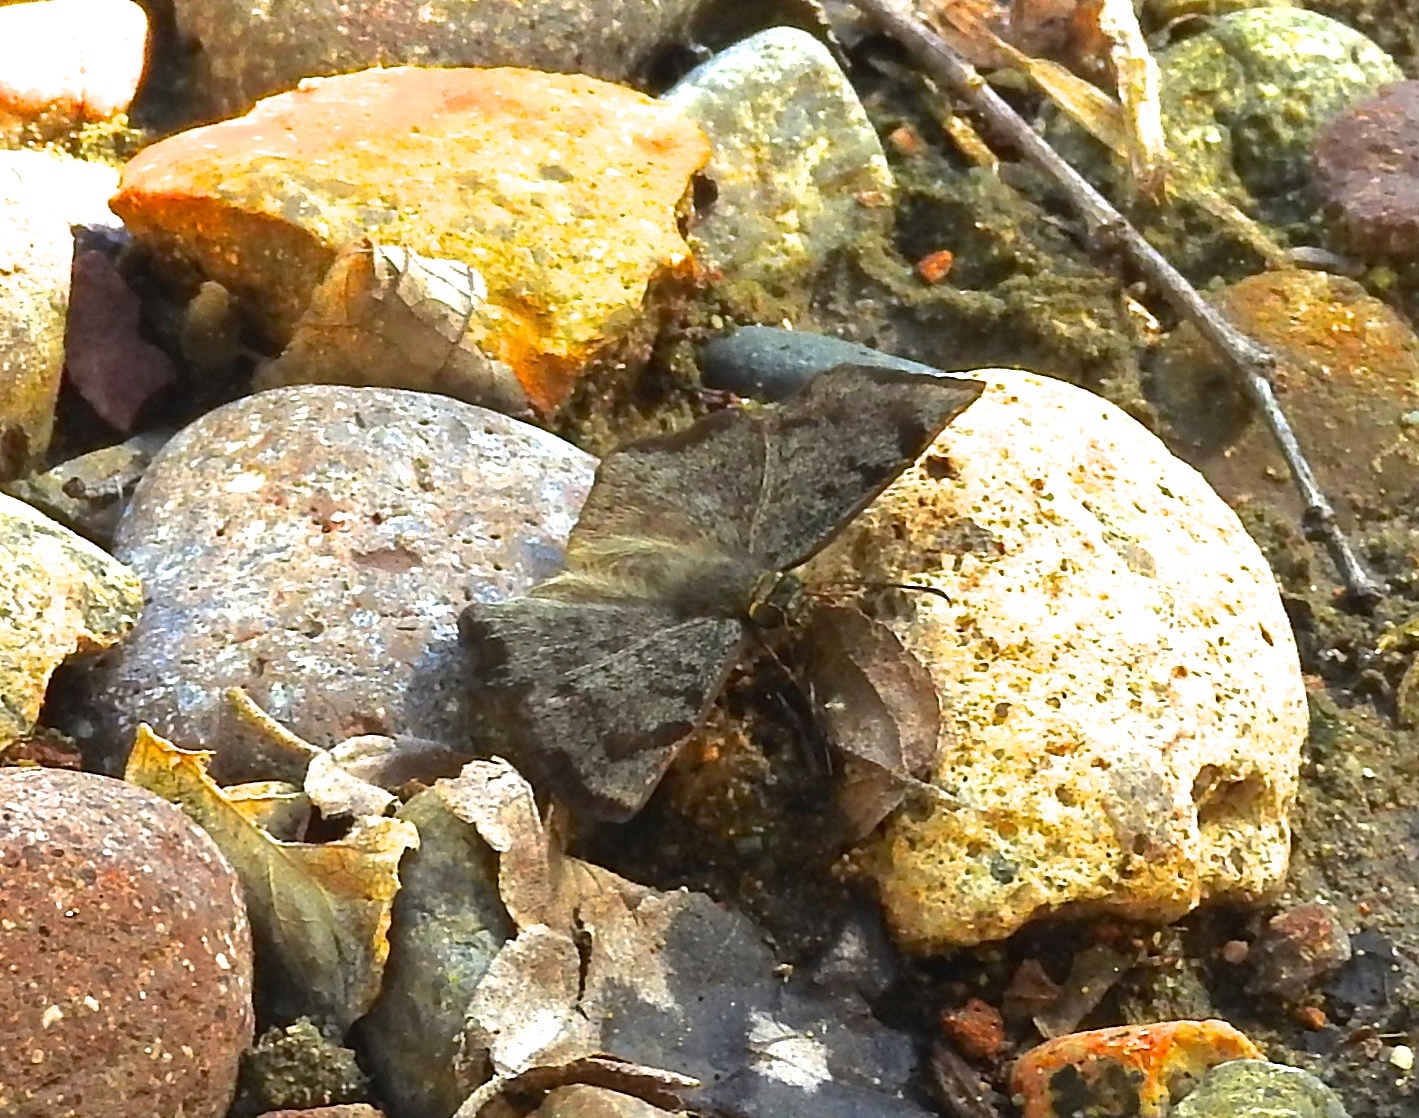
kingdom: Animalia
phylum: Arthropoda
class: Insecta
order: Lepidoptera
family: Hesperiidae
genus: Antigonus
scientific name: Antigonus erosus
